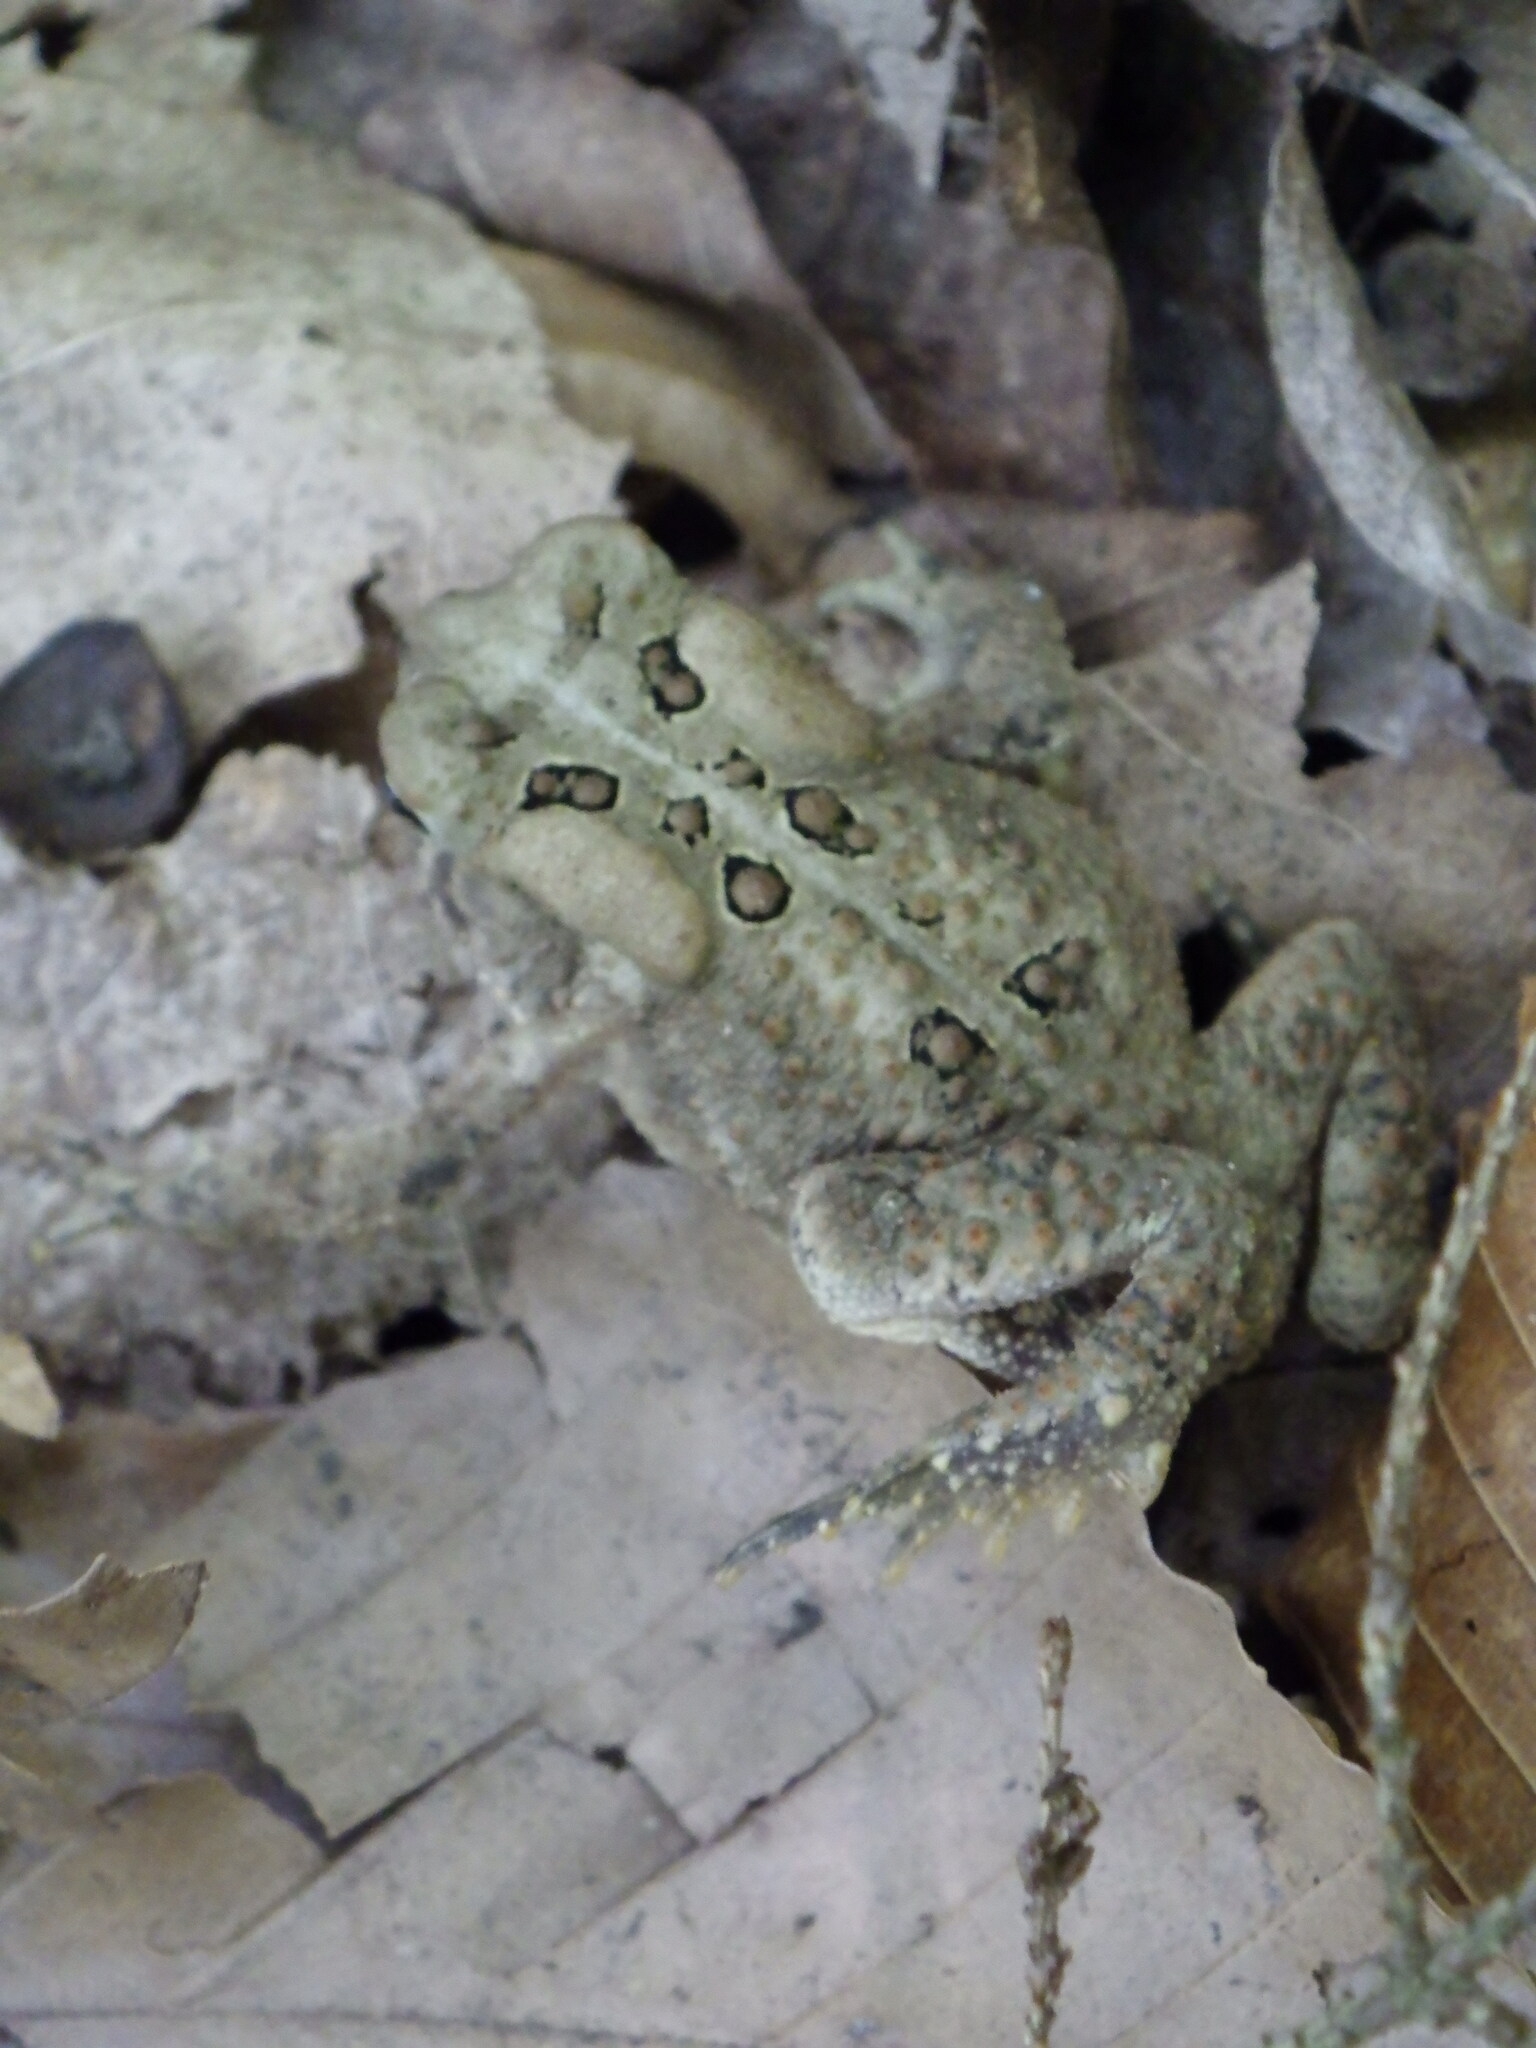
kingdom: Animalia
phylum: Chordata
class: Amphibia
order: Anura
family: Bufonidae
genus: Anaxyrus
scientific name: Anaxyrus americanus
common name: American toad
